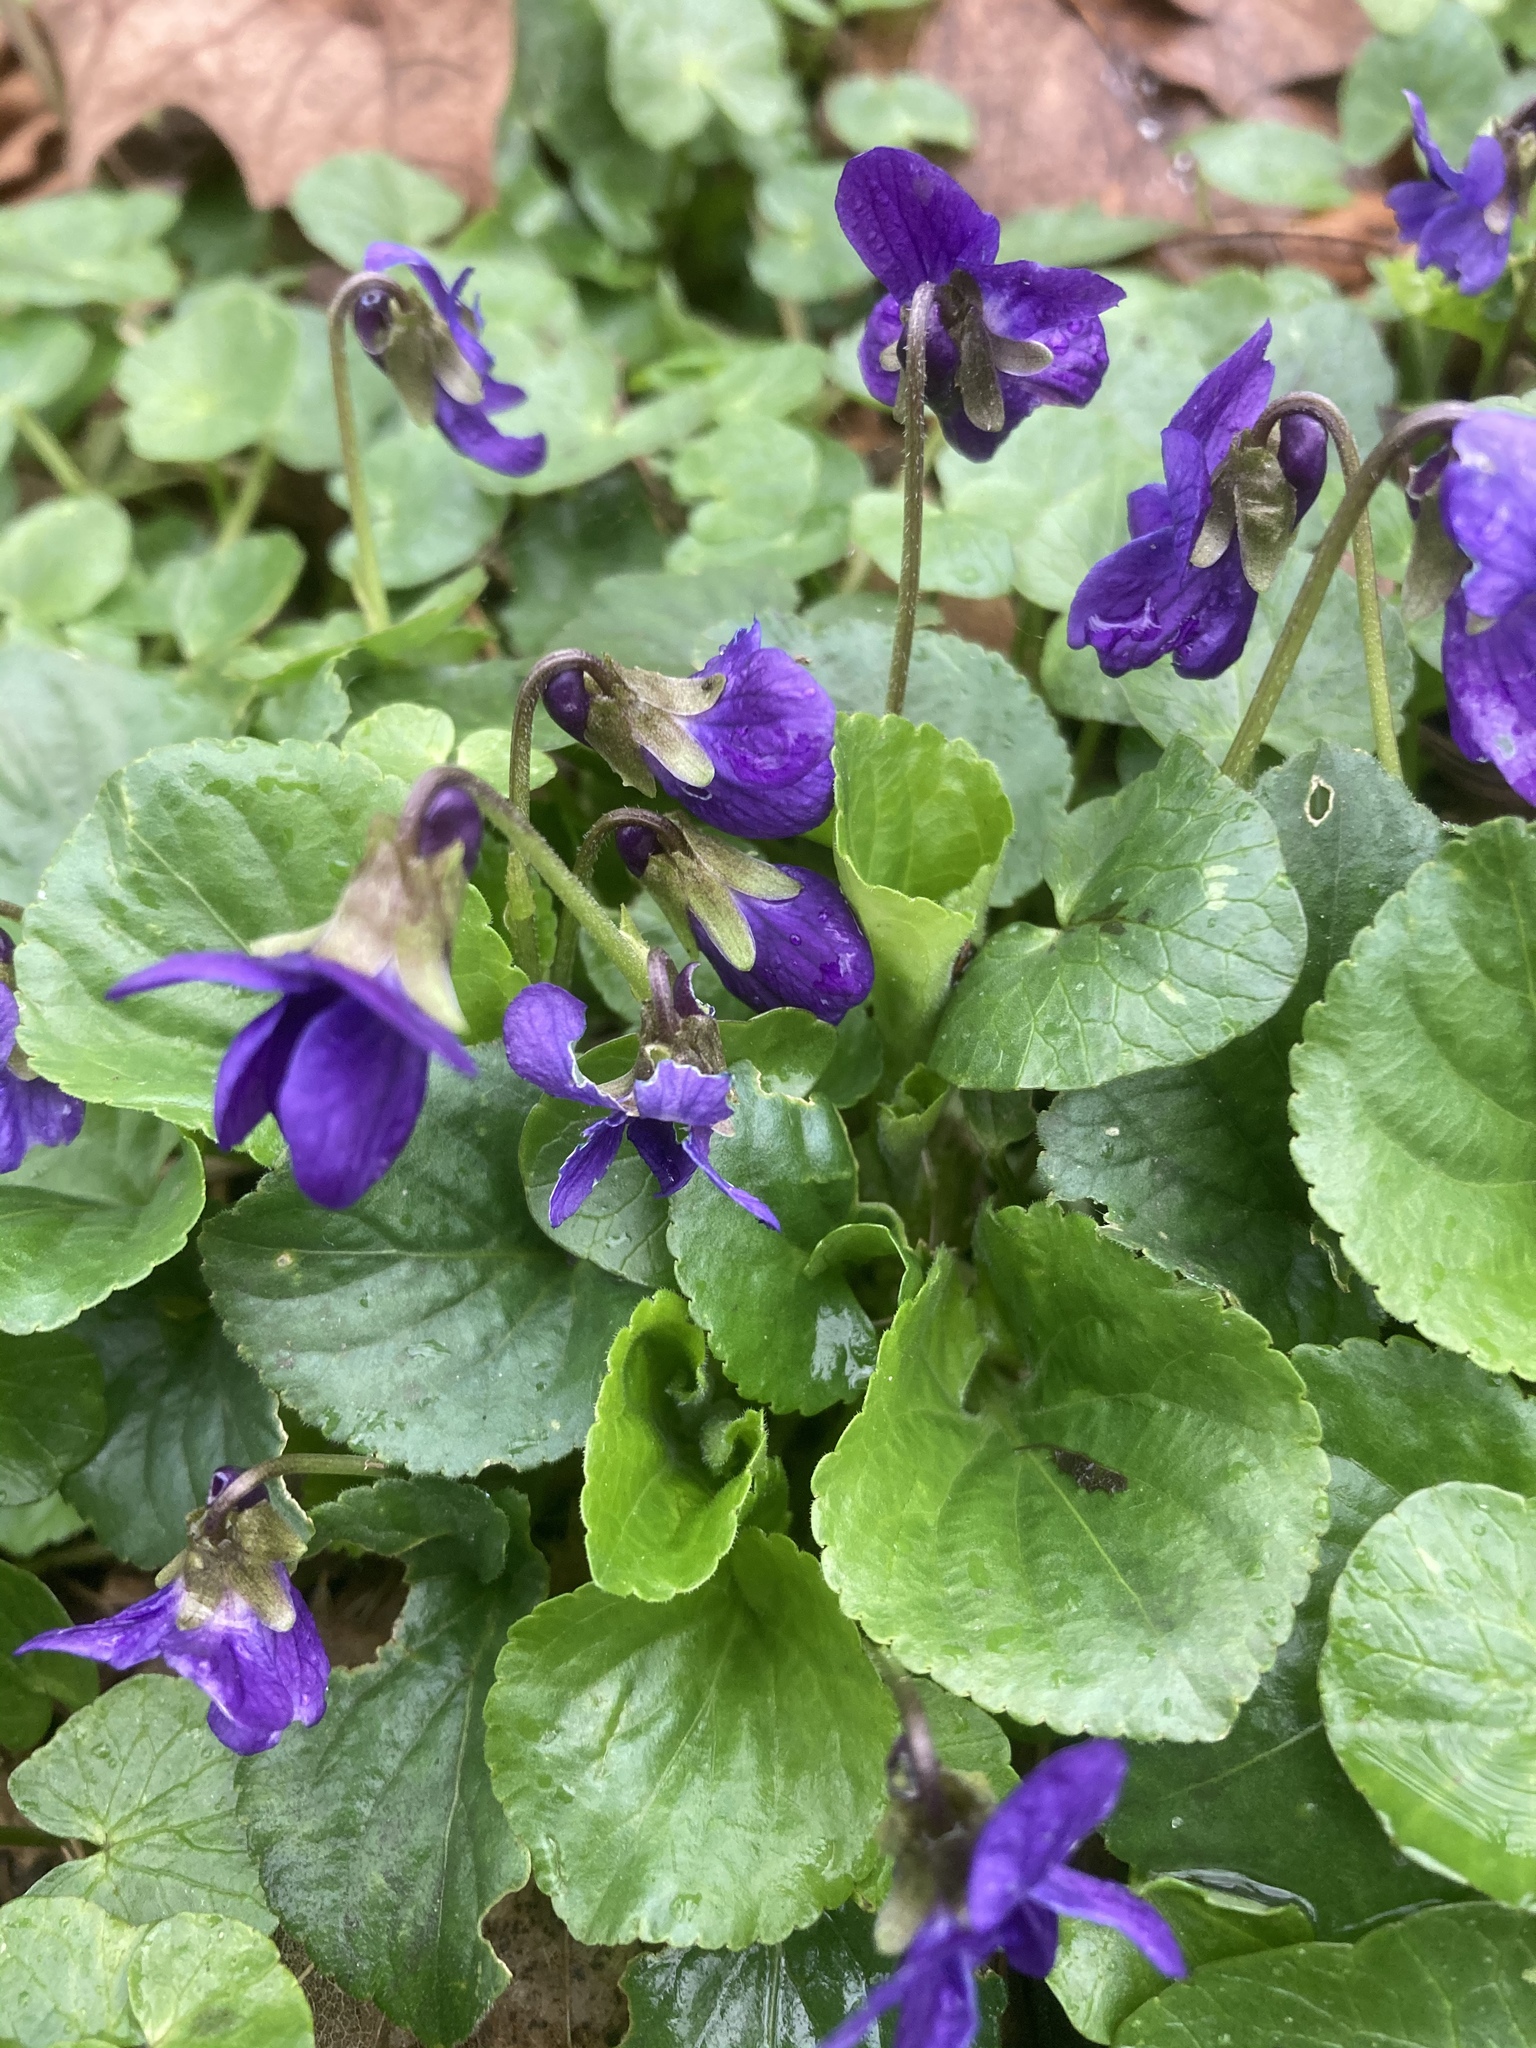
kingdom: Plantae
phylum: Tracheophyta
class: Magnoliopsida
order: Malpighiales
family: Violaceae
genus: Viola
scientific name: Viola odorata
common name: Sweet violet
